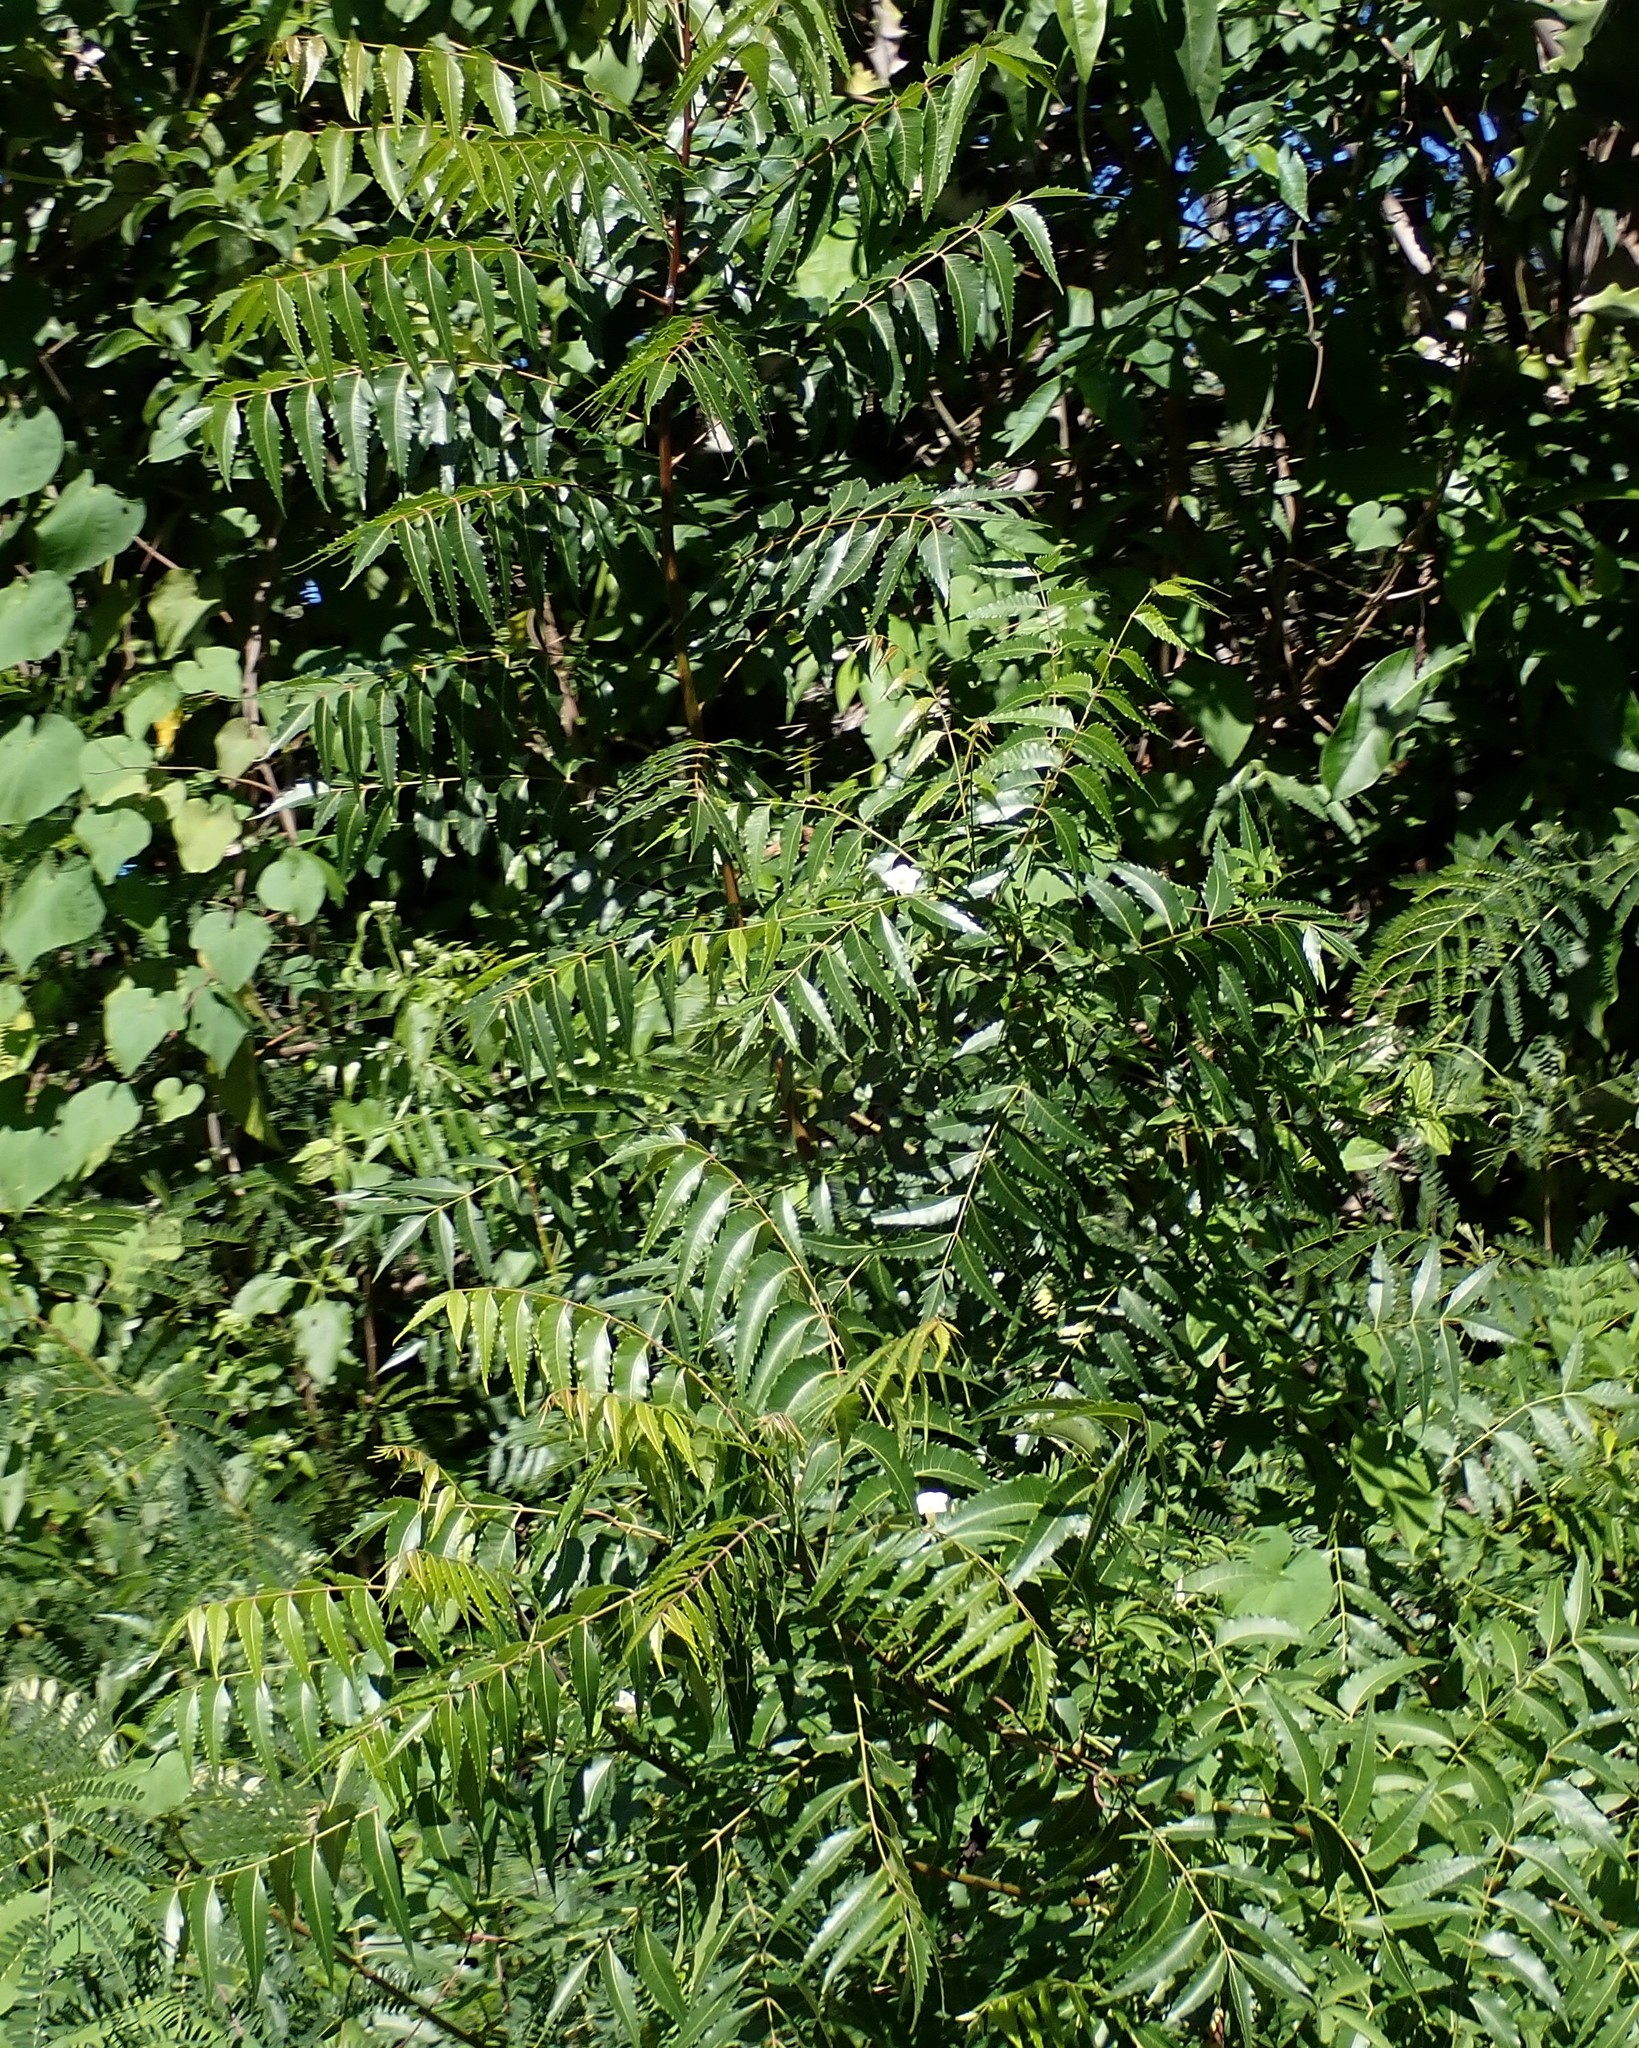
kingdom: Plantae
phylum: Tracheophyta
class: Magnoliopsida
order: Sapindales
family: Meliaceae
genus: Azadirachta
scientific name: Azadirachta indica
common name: Neem
